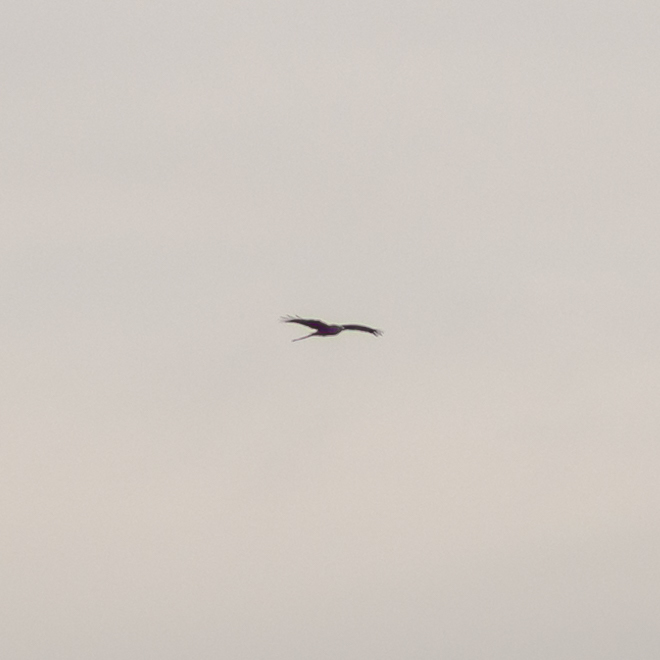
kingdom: Animalia
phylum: Chordata
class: Aves
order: Accipitriformes
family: Accipitridae
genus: Milvus
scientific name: Milvus milvus
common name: Red kite
